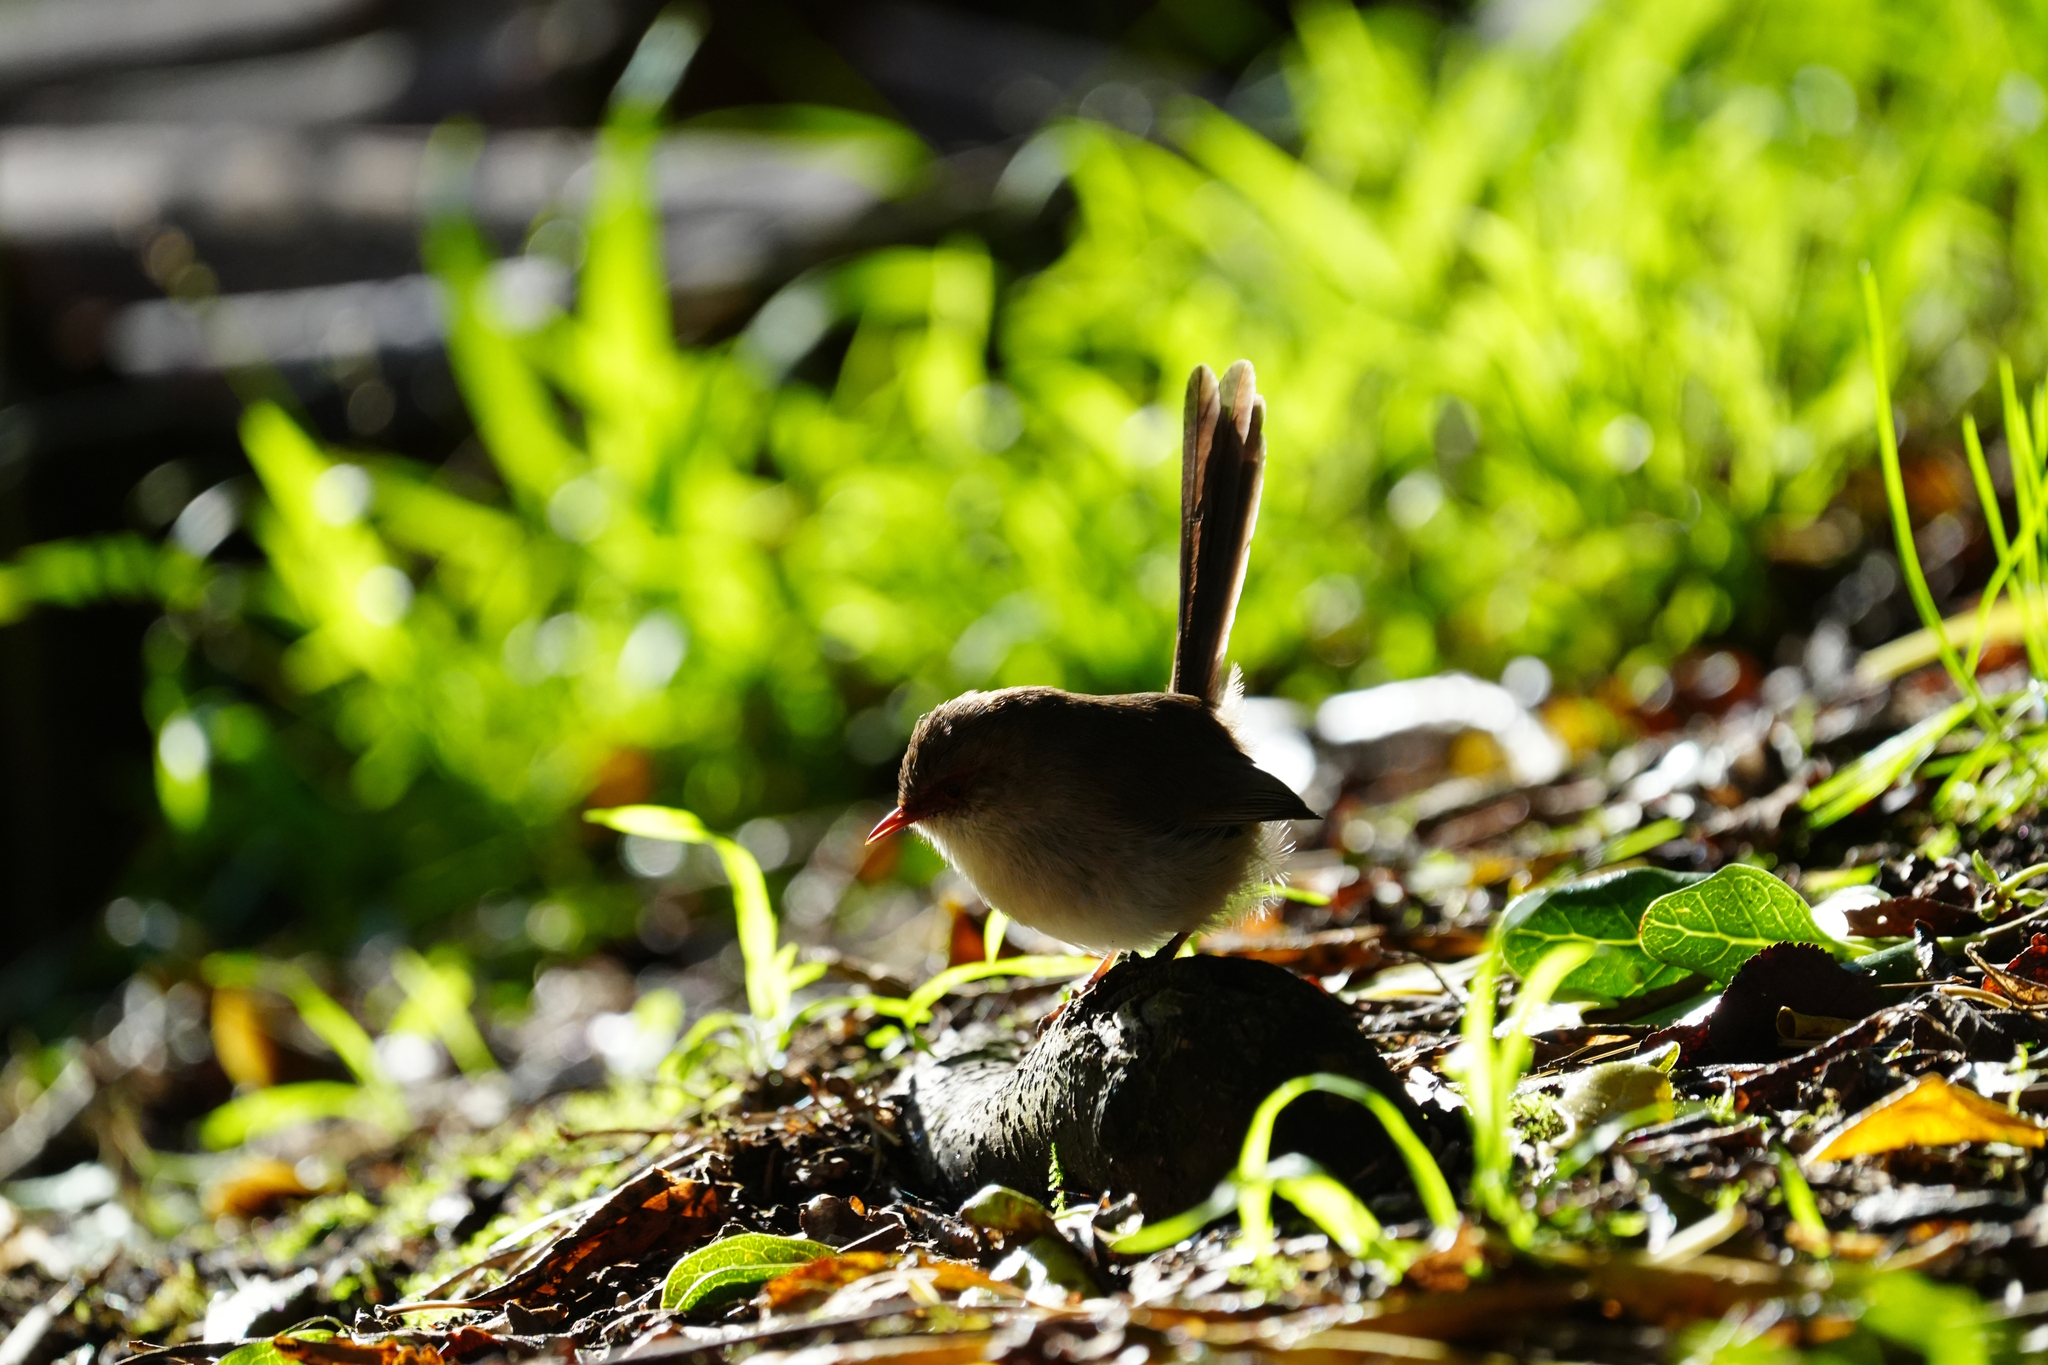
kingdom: Animalia
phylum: Chordata
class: Aves
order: Passeriformes
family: Maluridae
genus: Malurus
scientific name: Malurus cyaneus
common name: Superb fairywren
